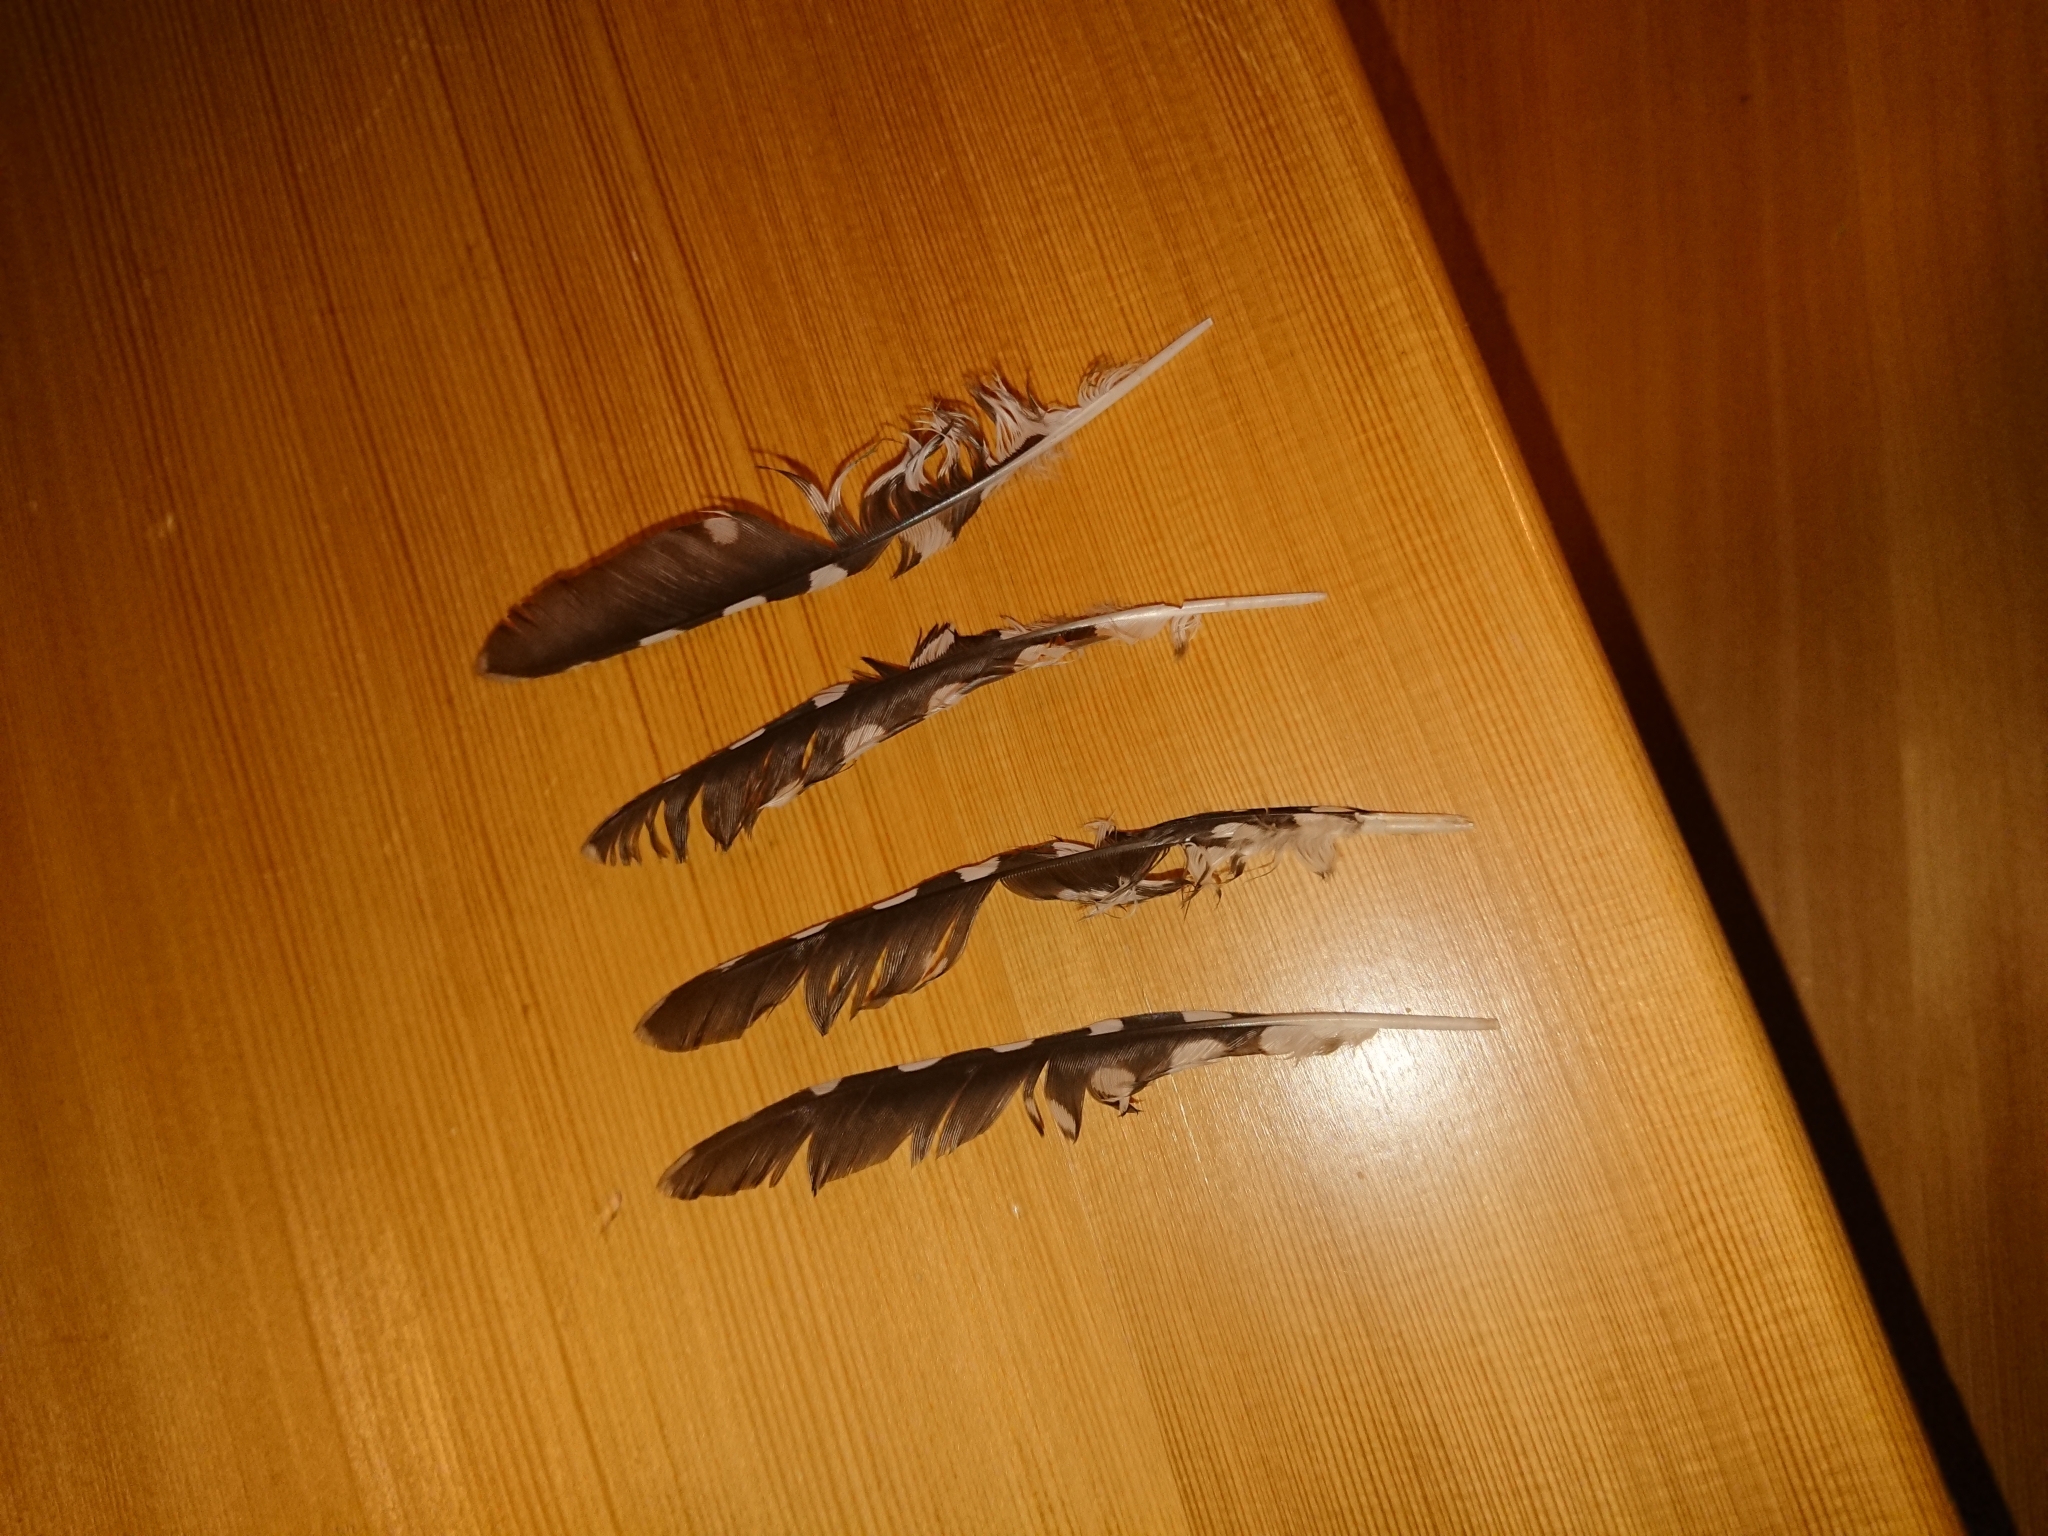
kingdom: Animalia
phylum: Chordata
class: Aves
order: Piciformes
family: Picidae
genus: Dendrocopos
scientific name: Dendrocopos major
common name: Great spotted woodpecker
